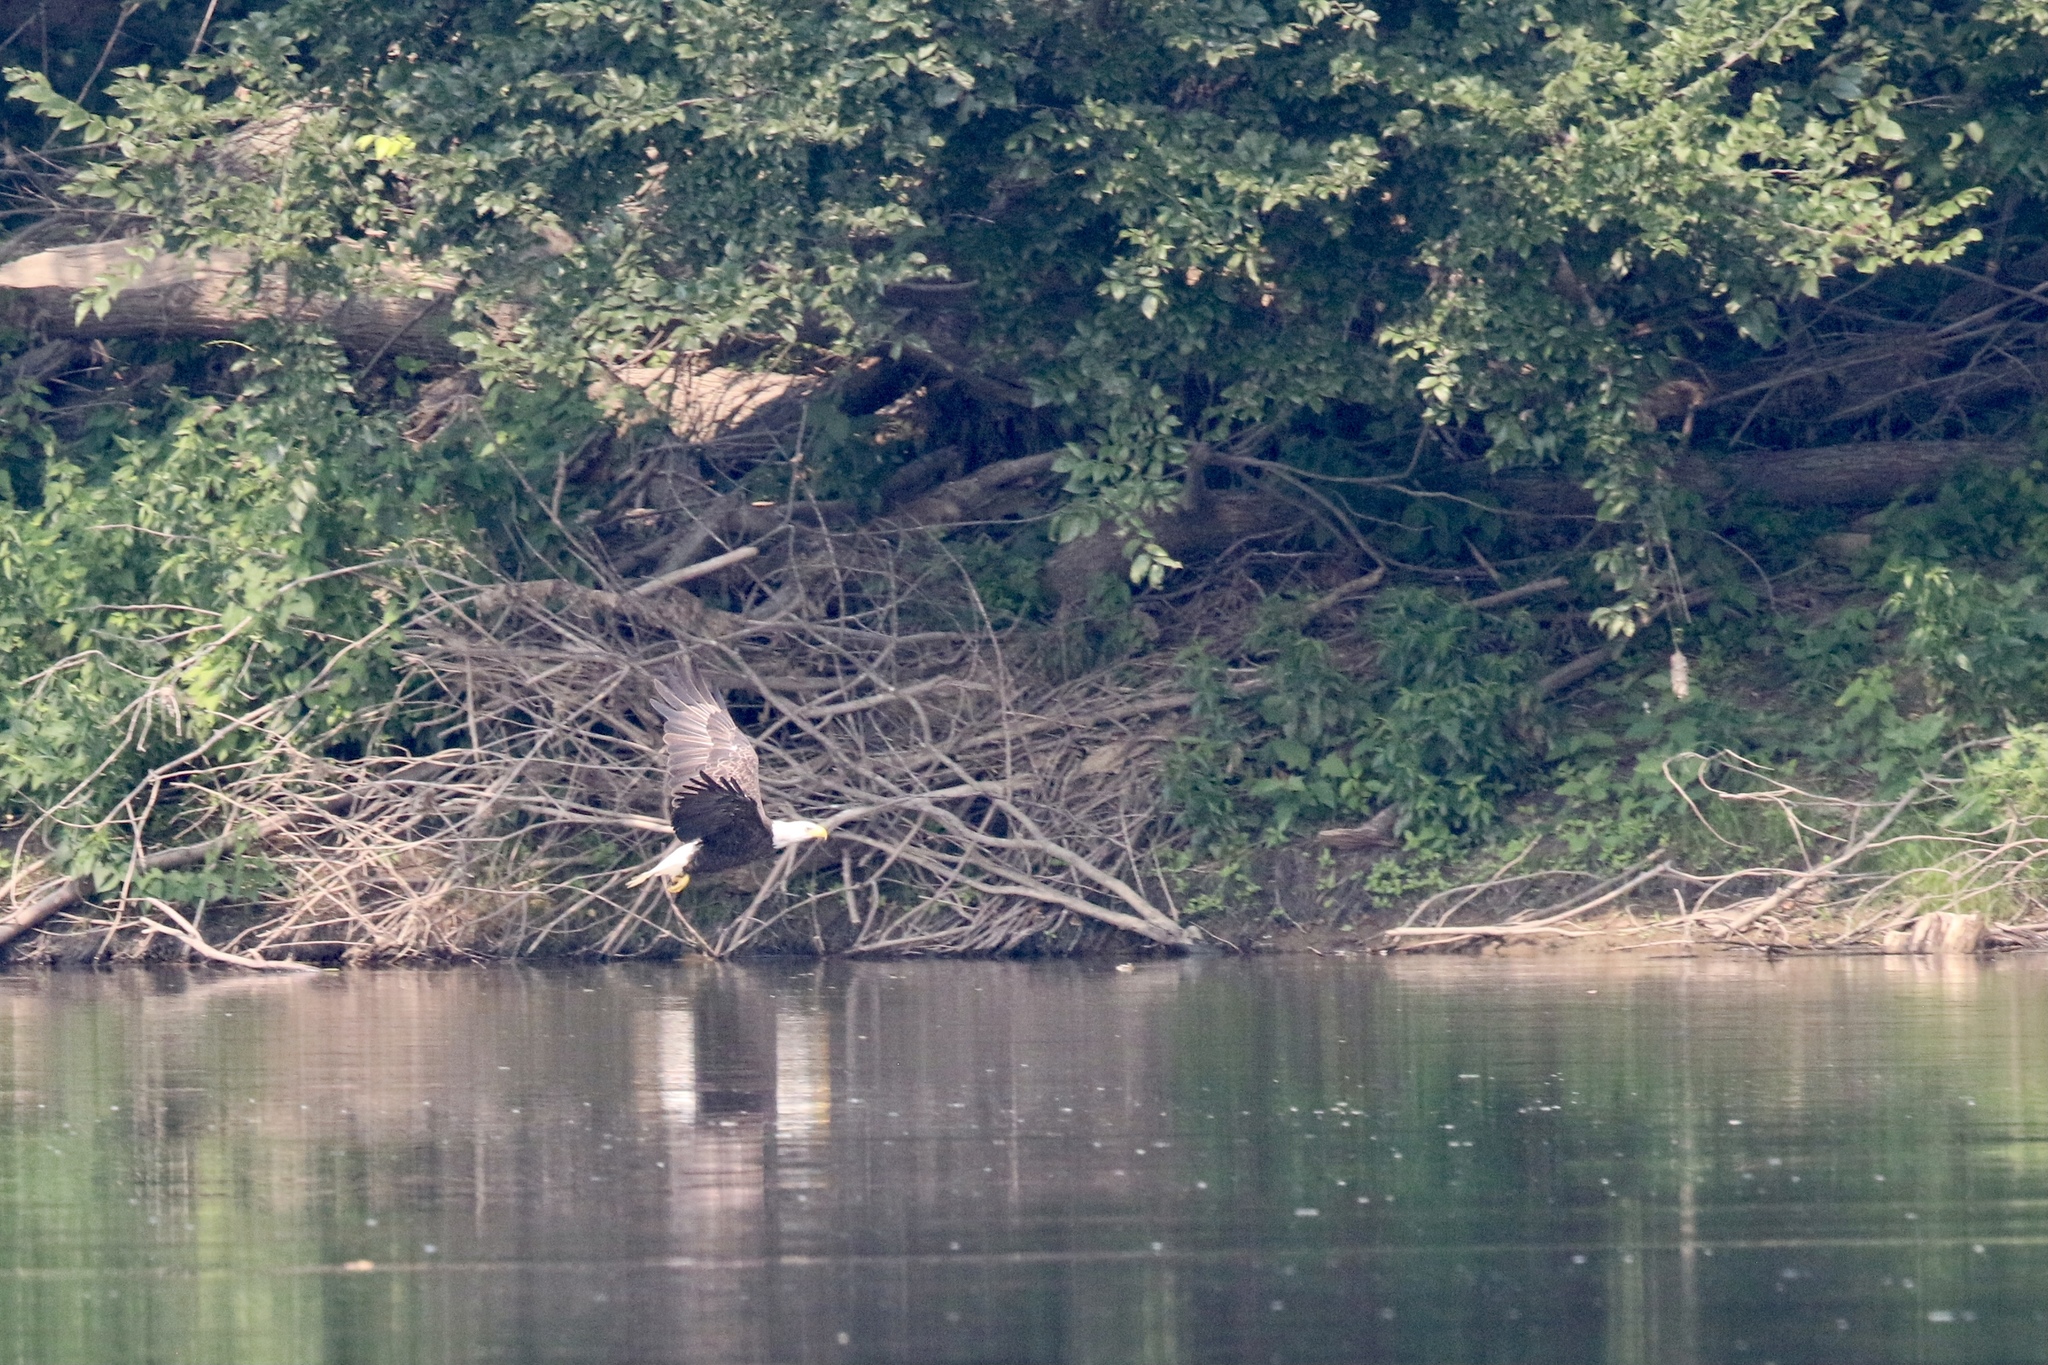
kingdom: Animalia
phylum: Chordata
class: Aves
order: Accipitriformes
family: Accipitridae
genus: Haliaeetus
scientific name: Haliaeetus leucocephalus
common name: Bald eagle
